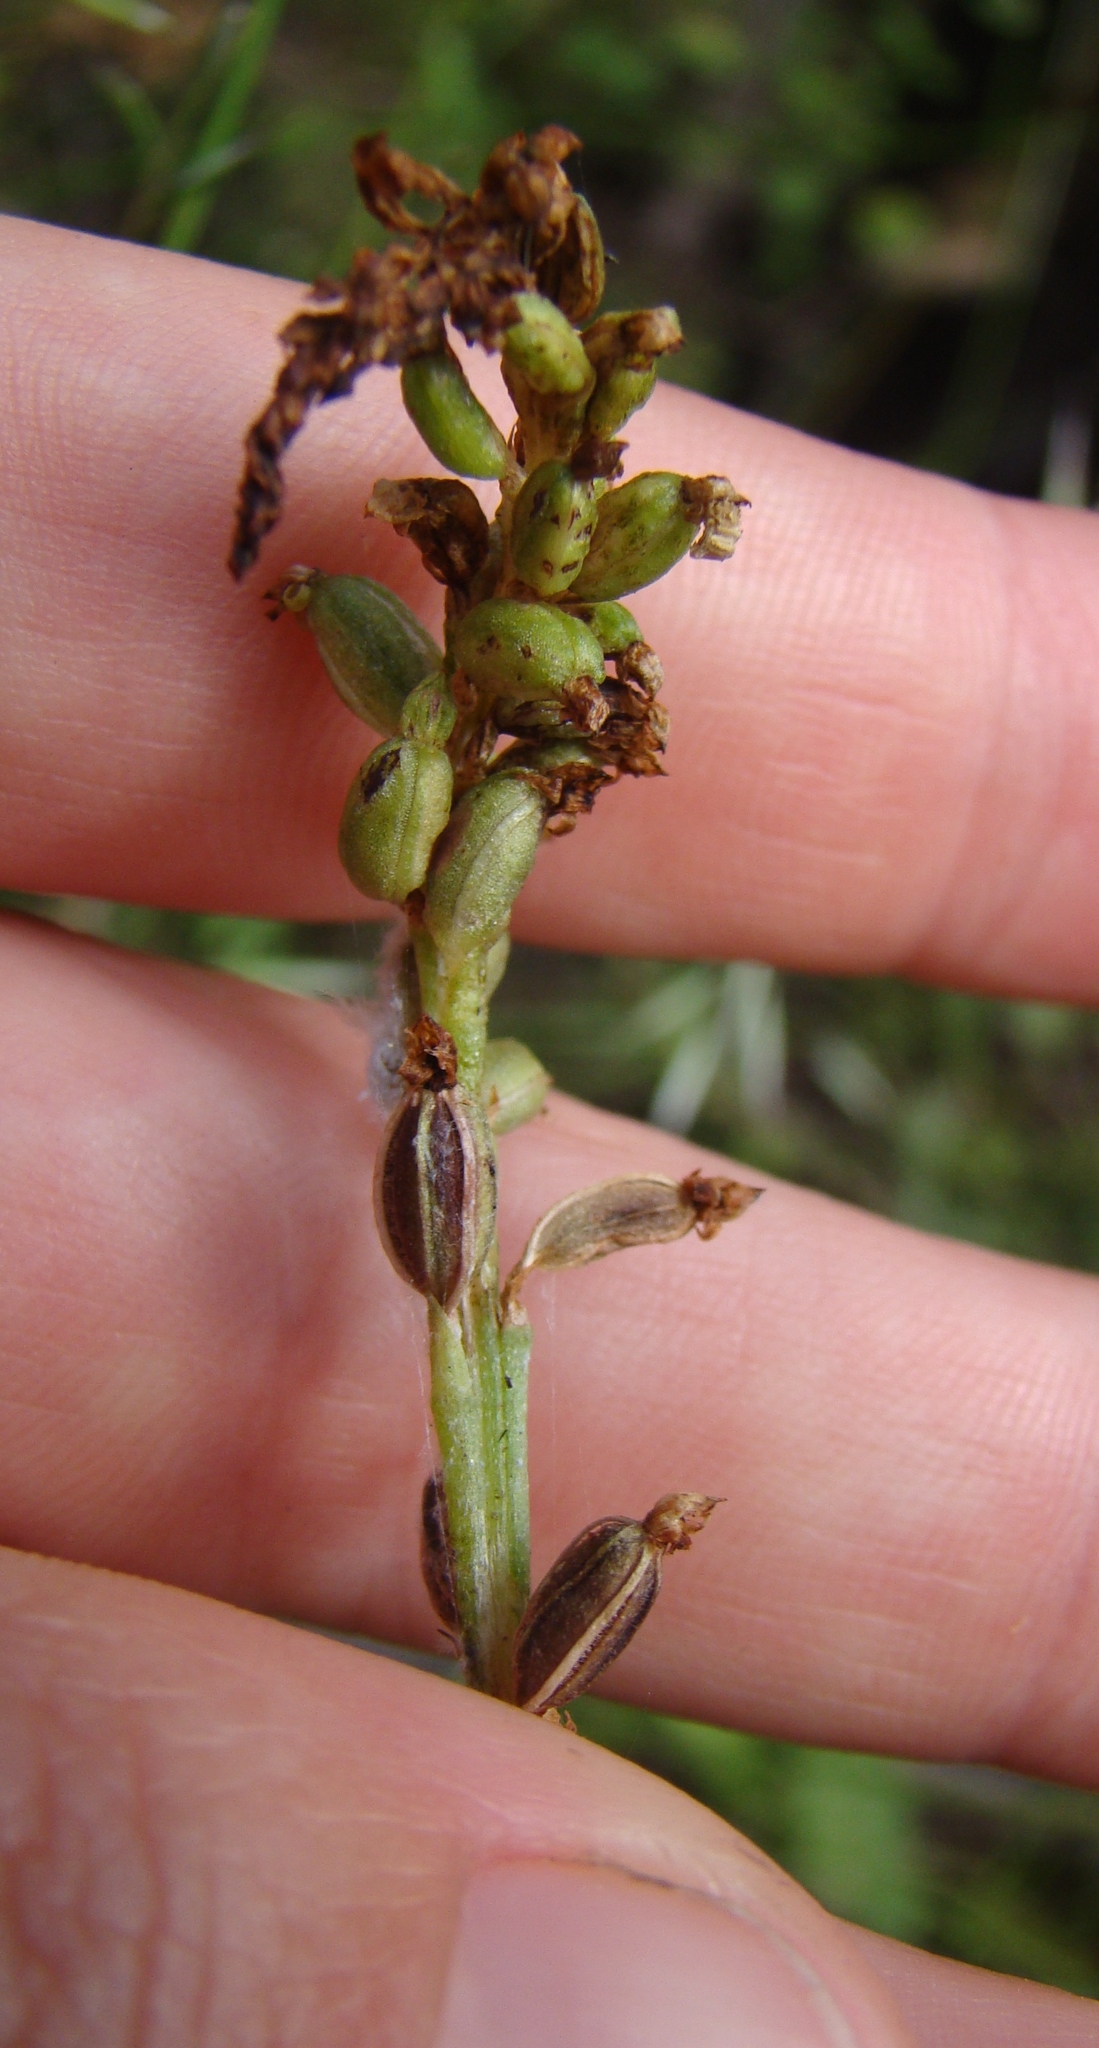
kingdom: Plantae
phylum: Tracheophyta
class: Liliopsida
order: Asparagales
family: Orchidaceae
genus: Microtis
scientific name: Microtis unifolia
